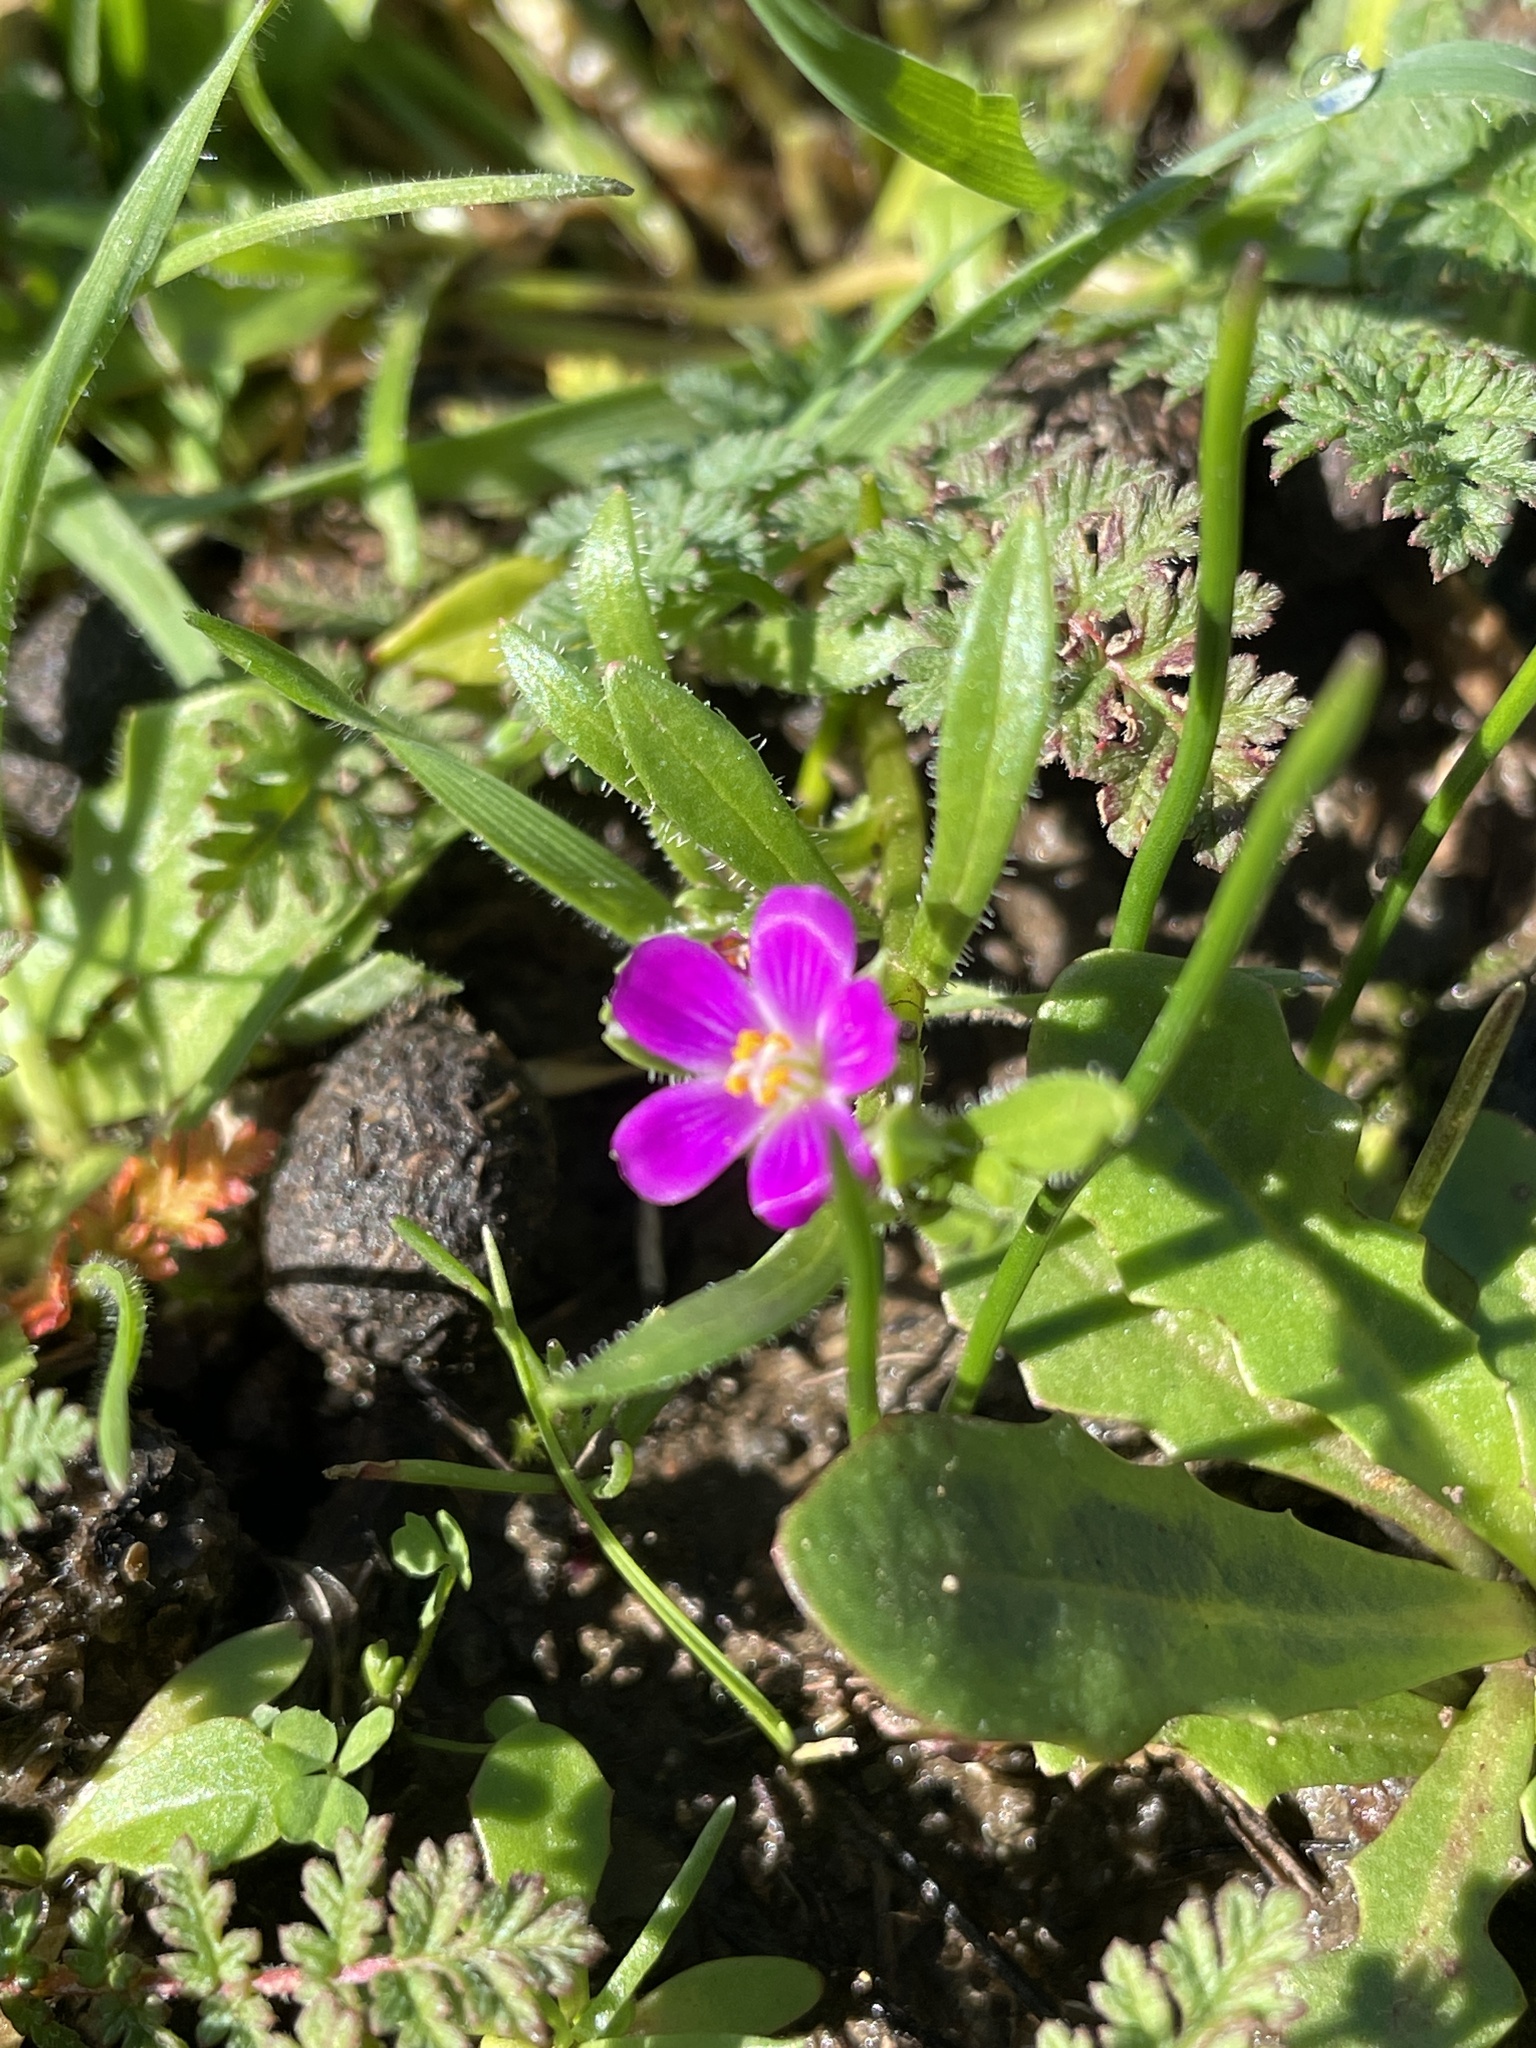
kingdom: Plantae
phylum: Tracheophyta
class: Magnoliopsida
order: Caryophyllales
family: Montiaceae
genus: Calandrinia
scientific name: Calandrinia menziesii
